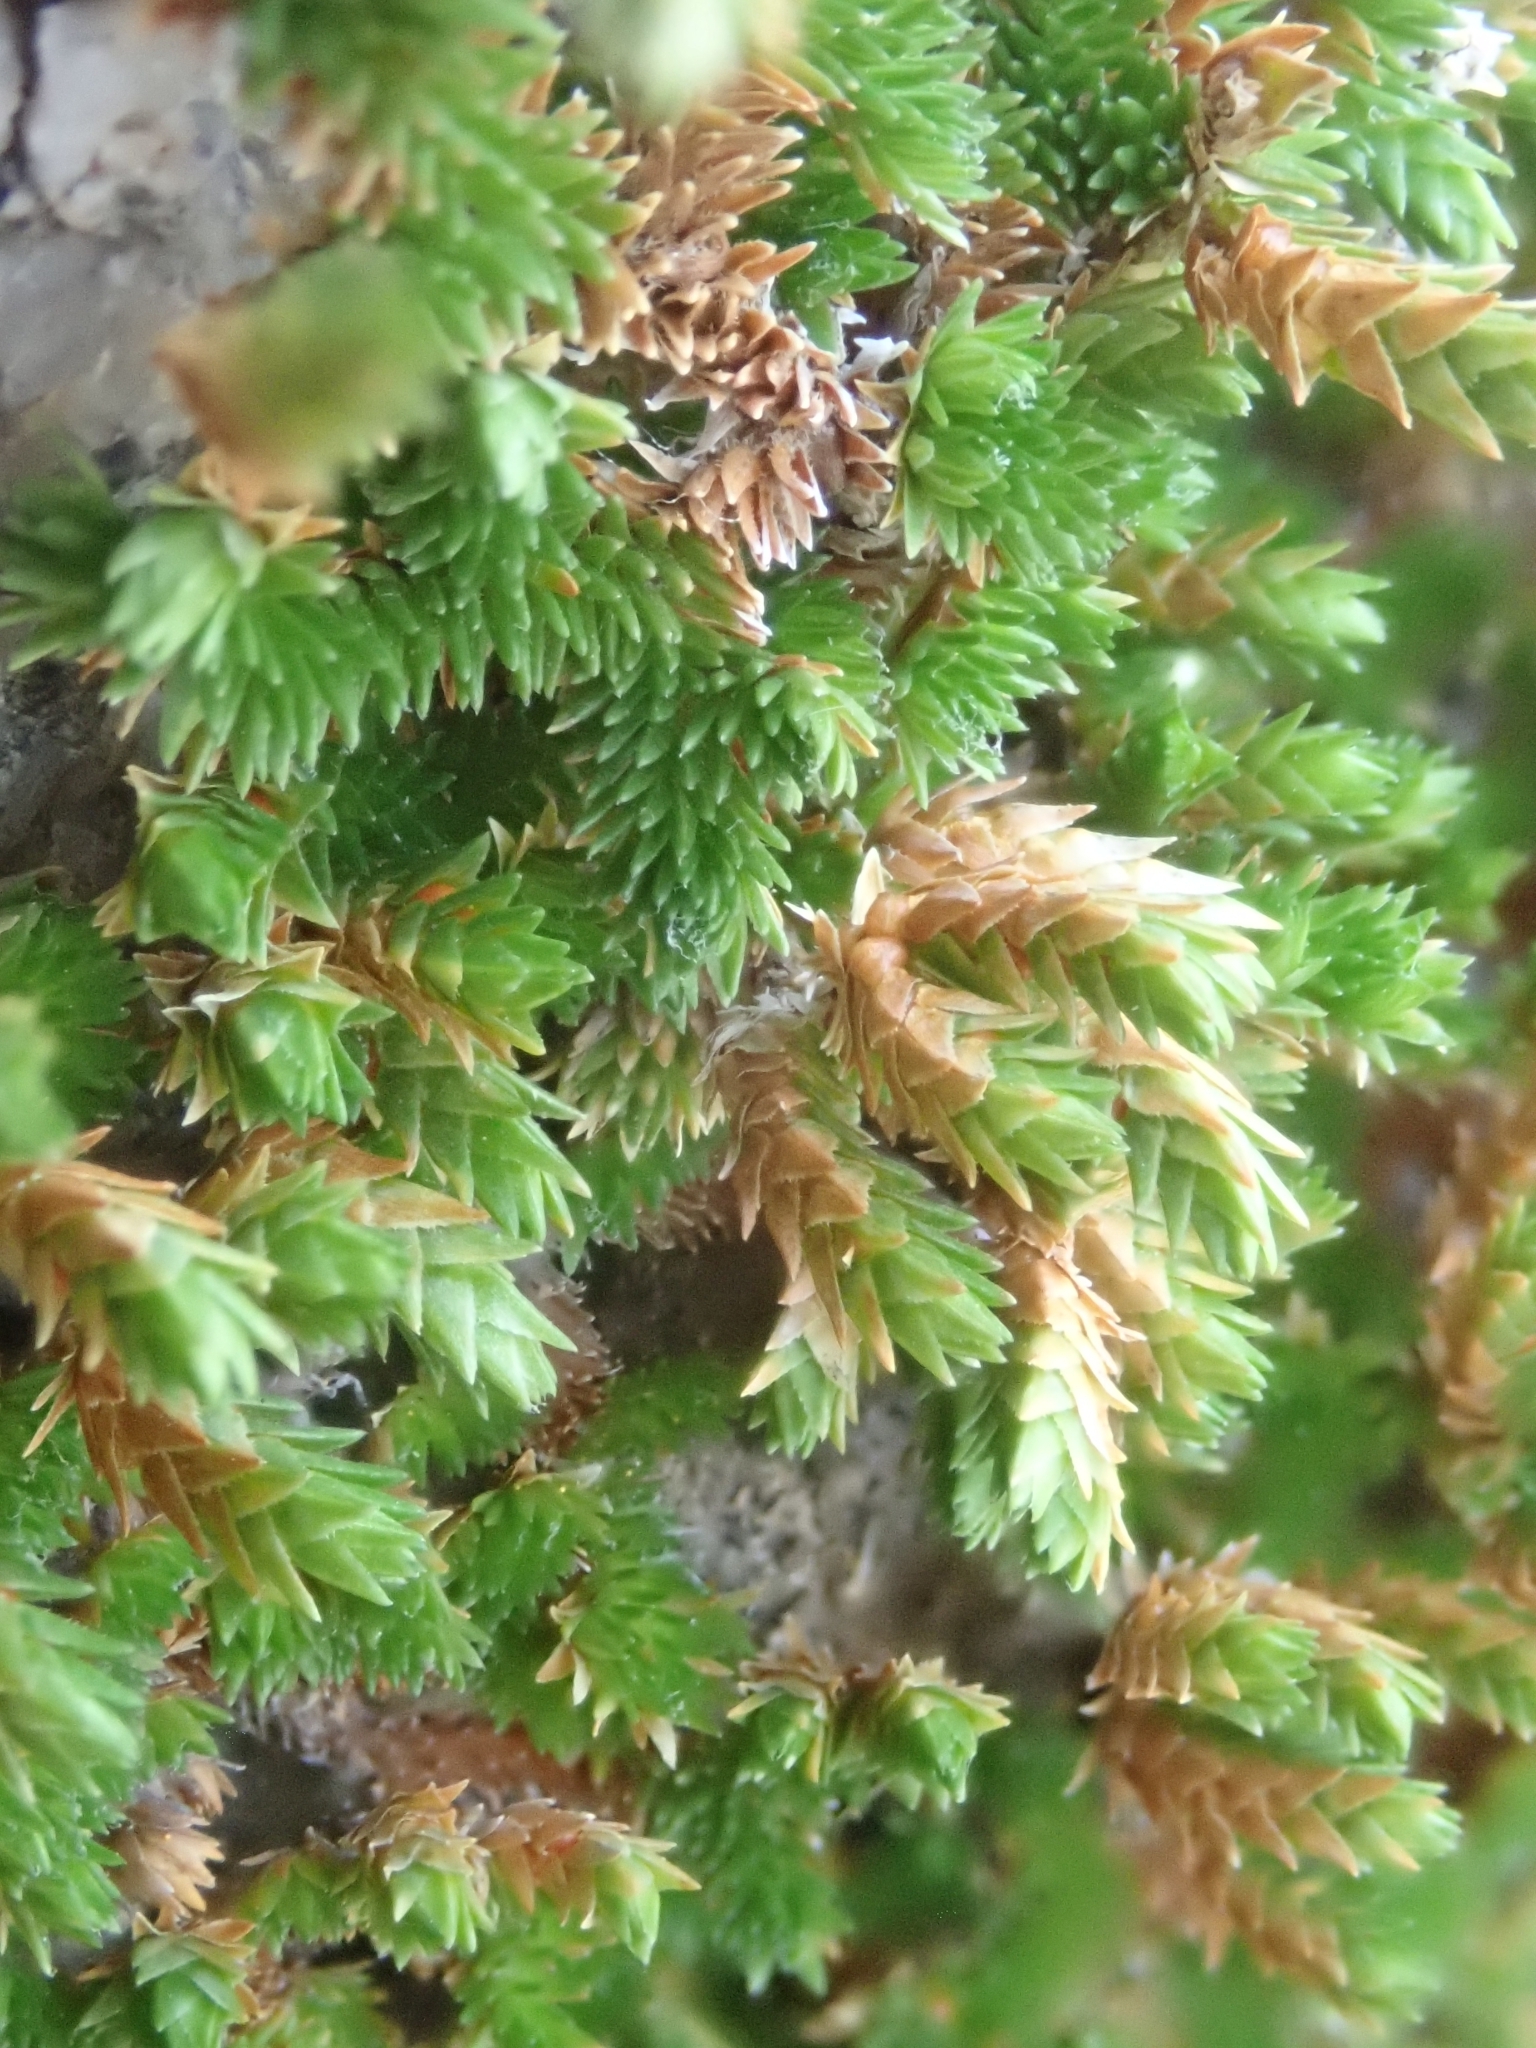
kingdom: Plantae
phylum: Tracheophyta
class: Lycopodiopsida
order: Selaginellales
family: Selaginellaceae
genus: Selaginella
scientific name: Selaginella eremophila
